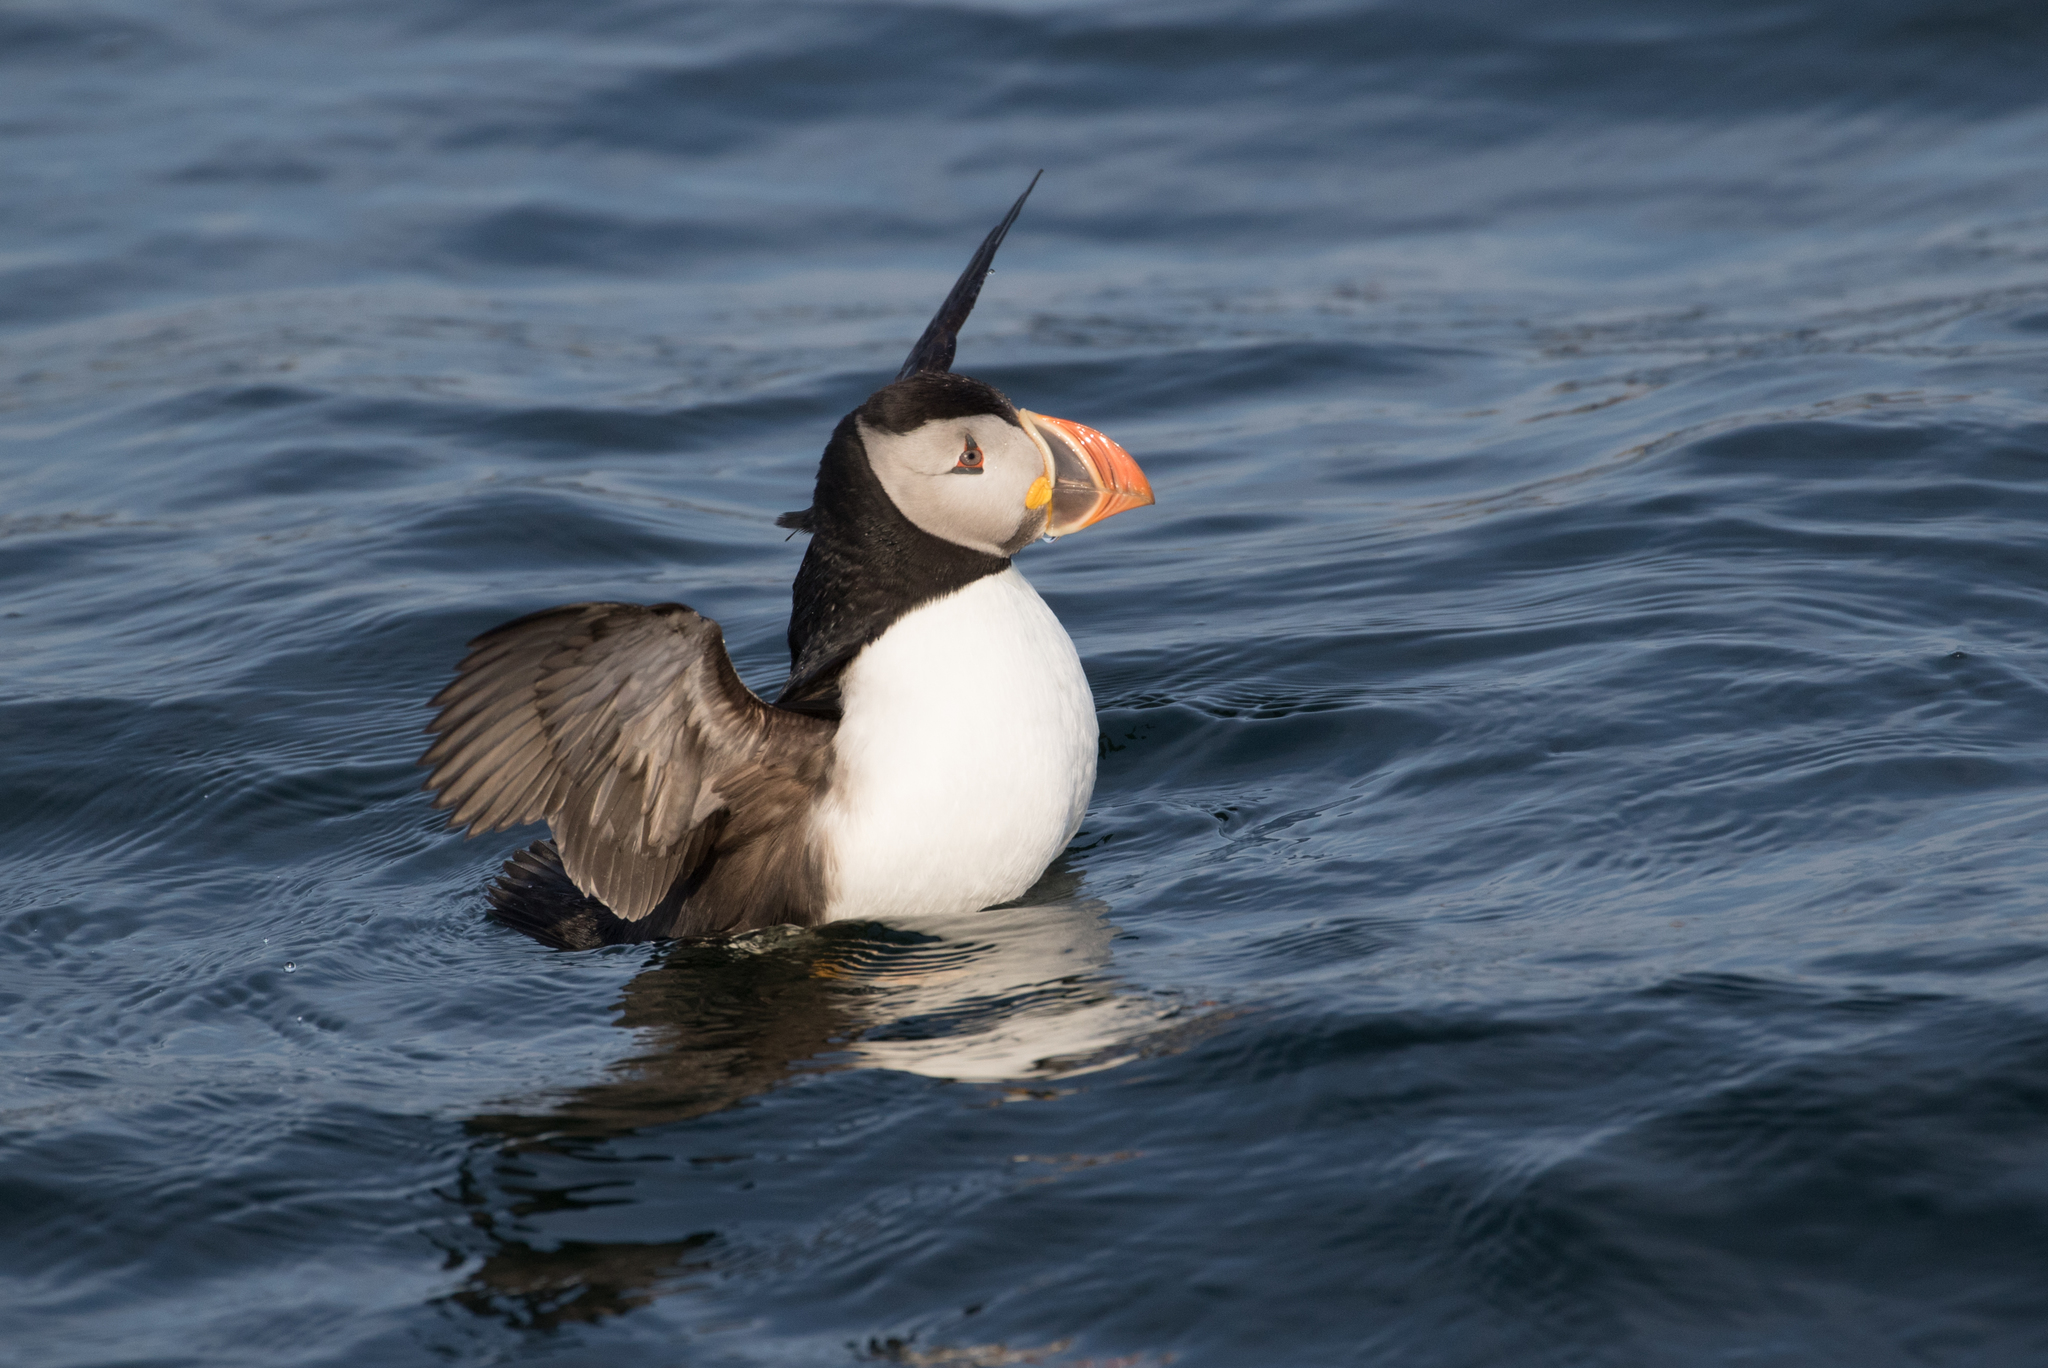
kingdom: Animalia
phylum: Chordata
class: Aves
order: Charadriiformes
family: Alcidae
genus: Fratercula
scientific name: Fratercula arctica
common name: Atlantic puffin
